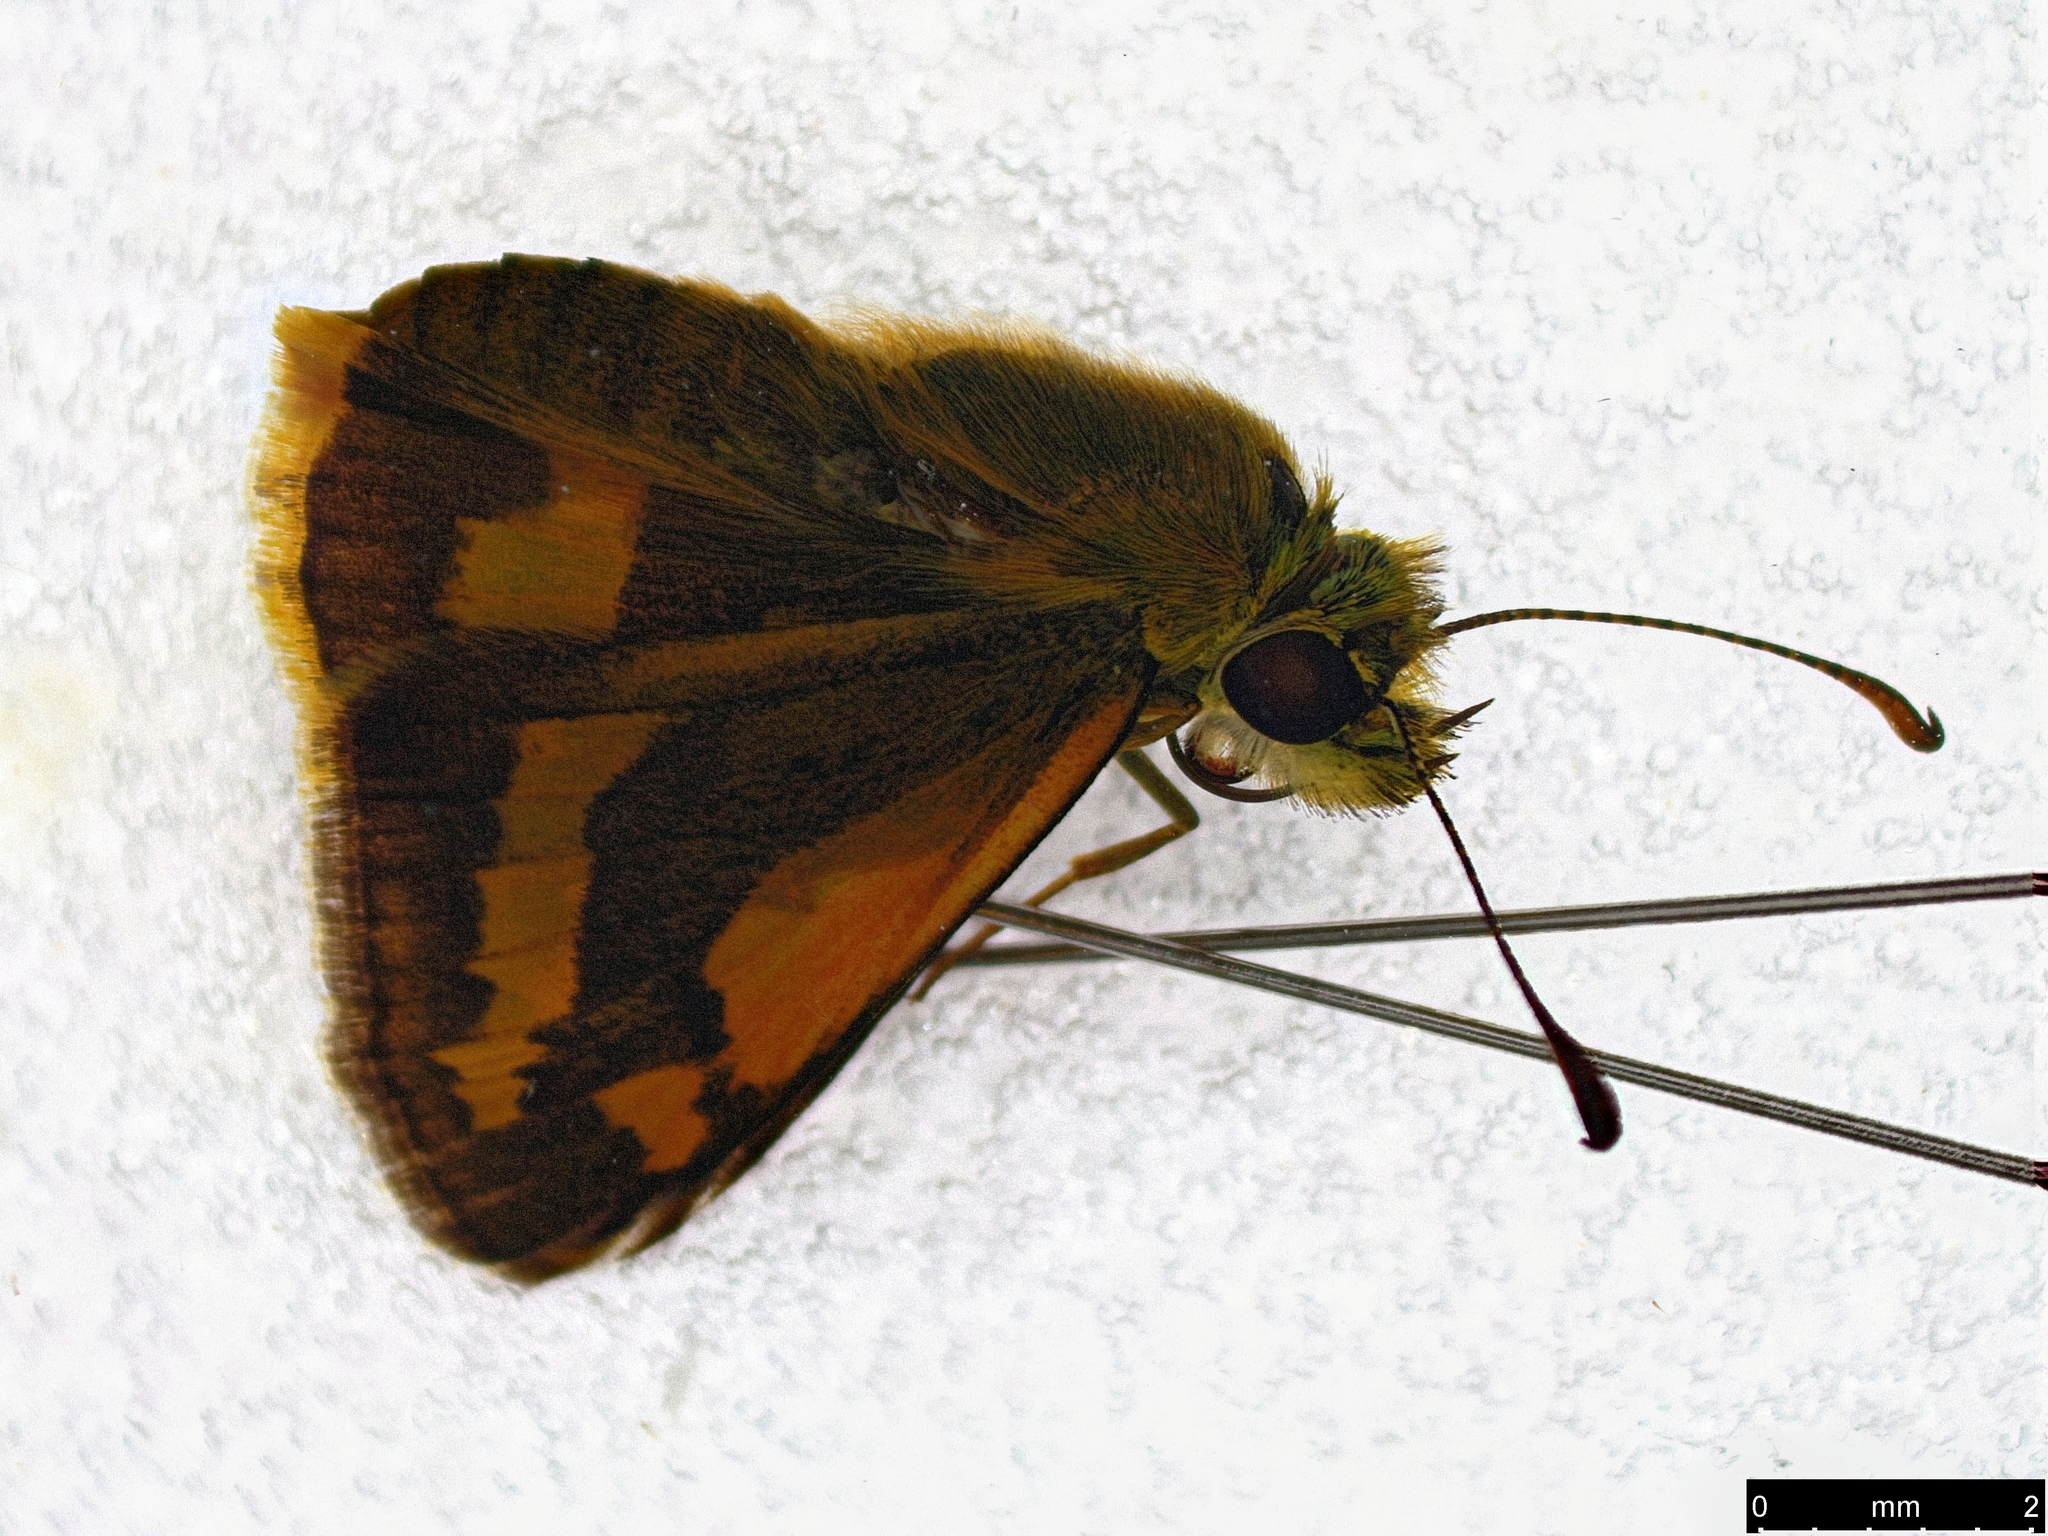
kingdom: Animalia
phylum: Arthropoda
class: Insecta
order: Lepidoptera
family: Hesperiidae
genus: Ocybadistes
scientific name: Ocybadistes walkeri
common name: Yellow-banded dart
